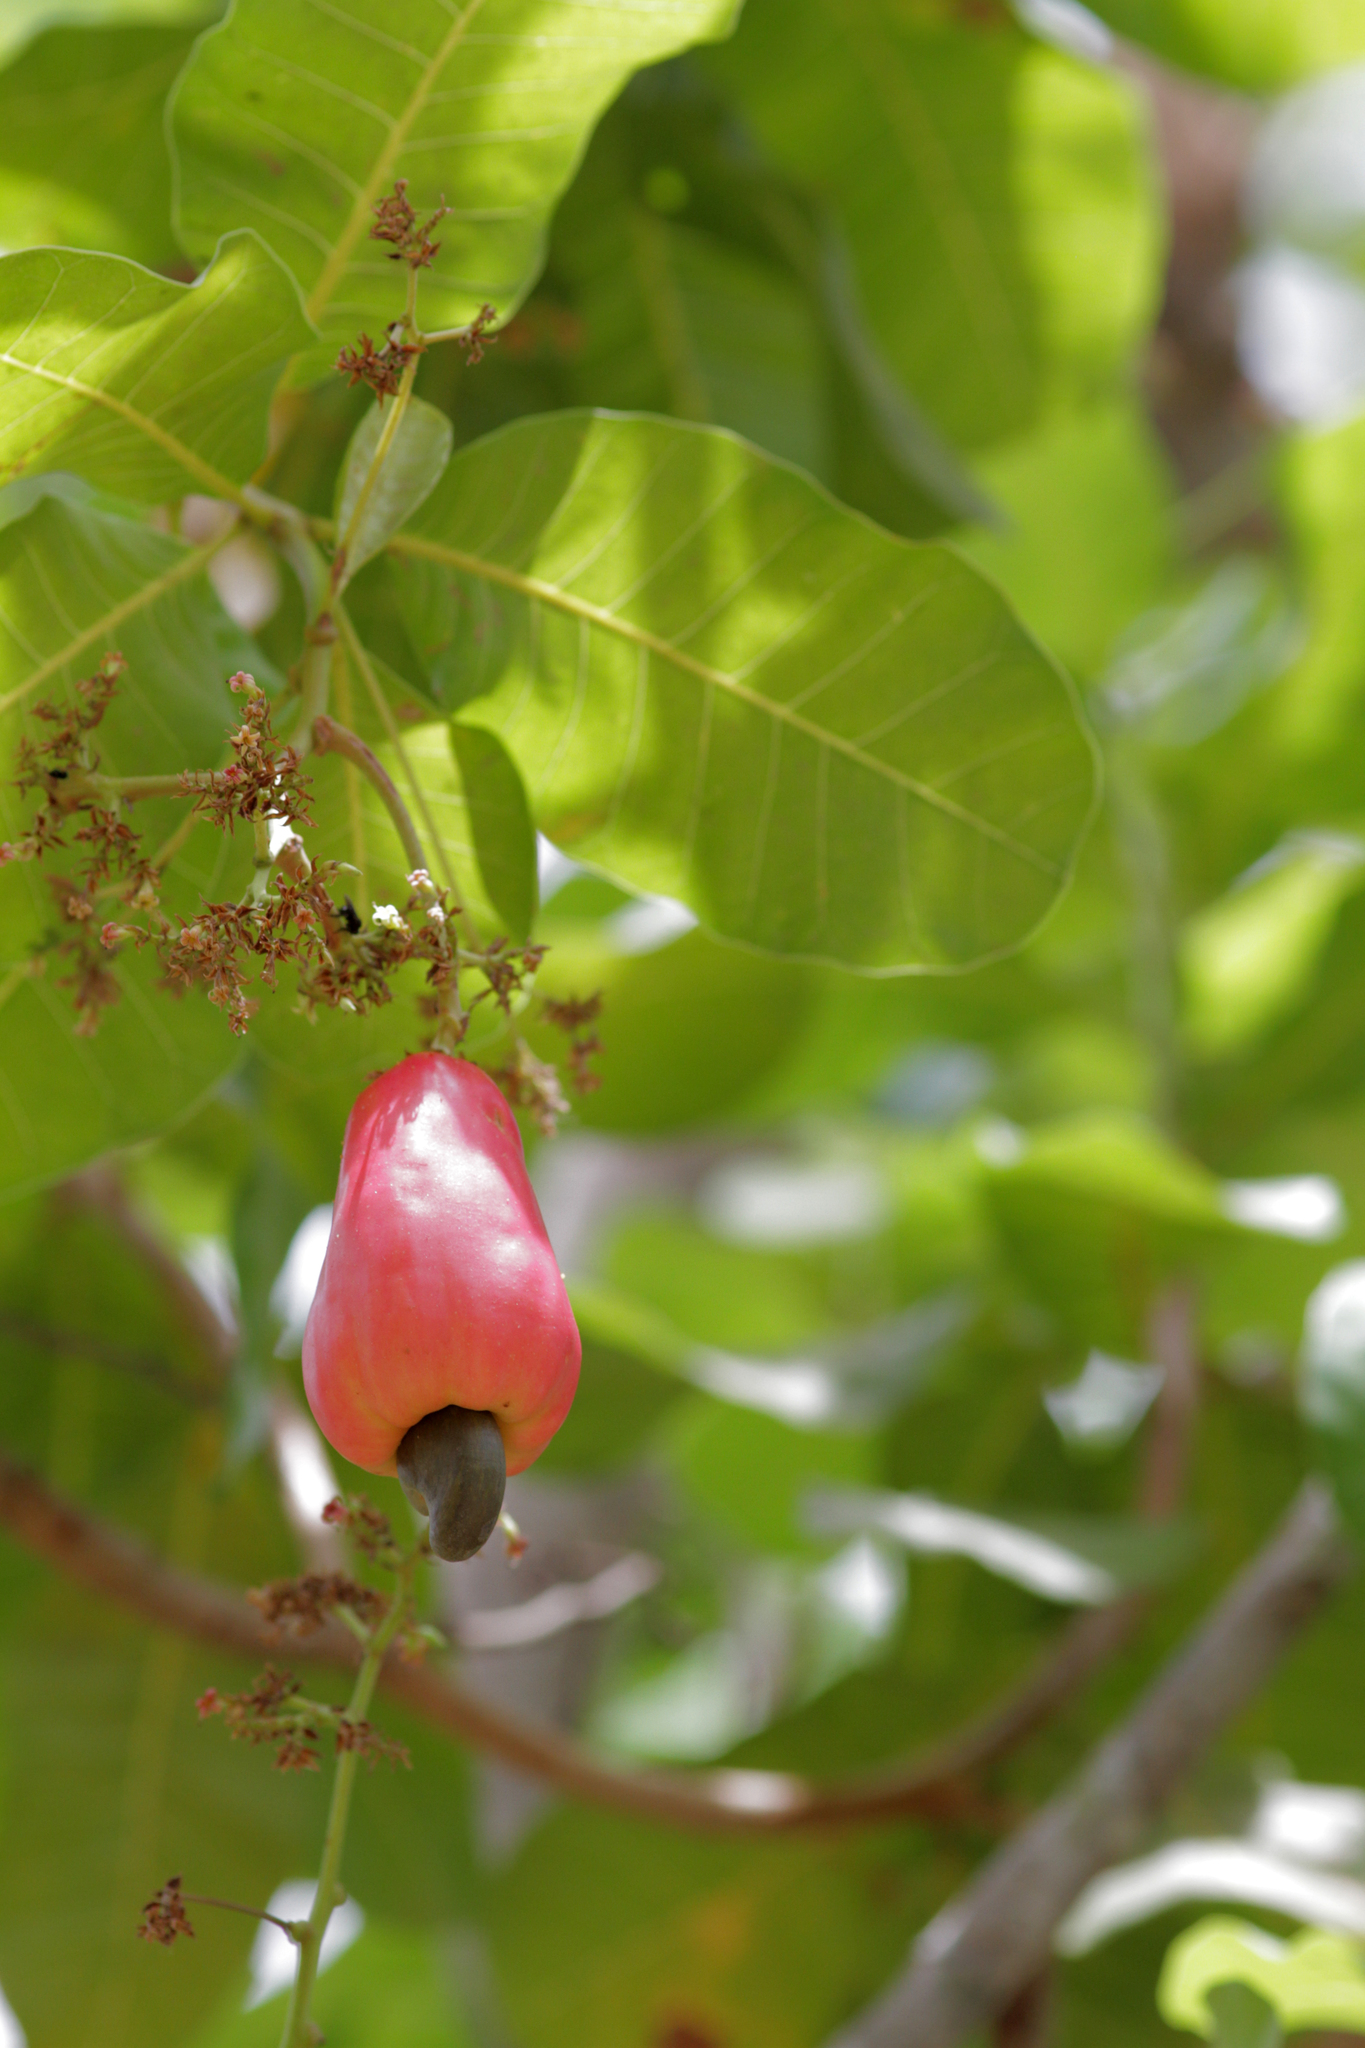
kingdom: Plantae
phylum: Tracheophyta
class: Magnoliopsida
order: Sapindales
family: Anacardiaceae
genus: Anacardium
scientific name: Anacardium occidentale
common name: Cashew
